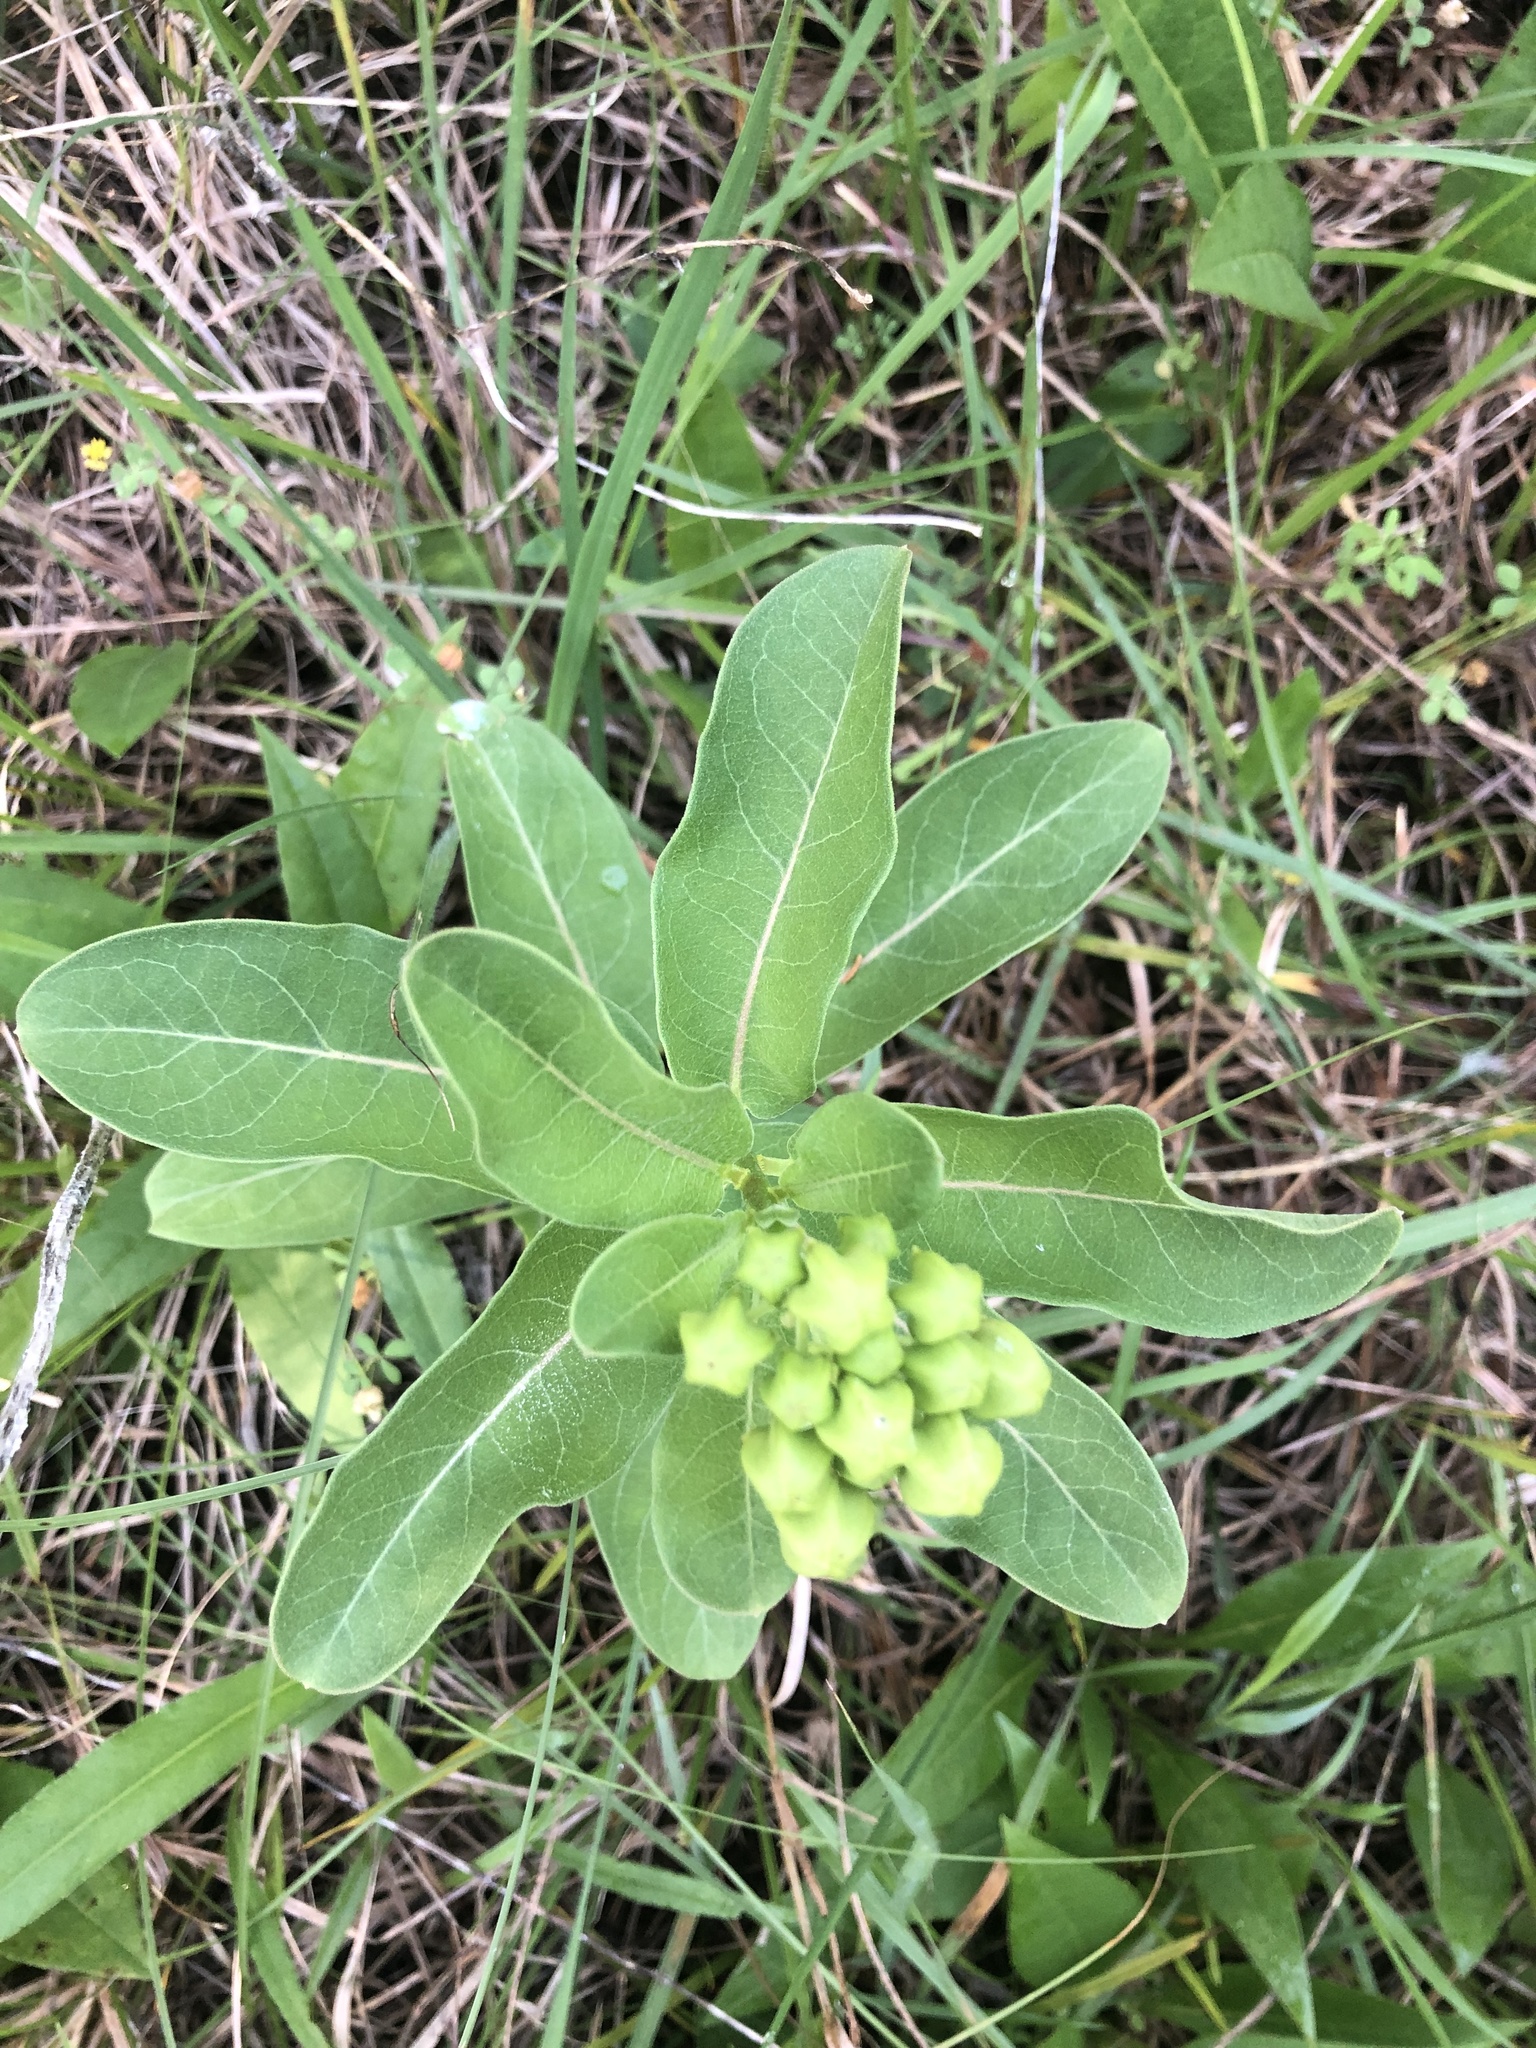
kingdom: Plantae
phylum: Tracheophyta
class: Magnoliopsida
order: Gentianales
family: Apocynaceae
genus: Asclepias
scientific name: Asclepias viridis
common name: Antelope-horns
